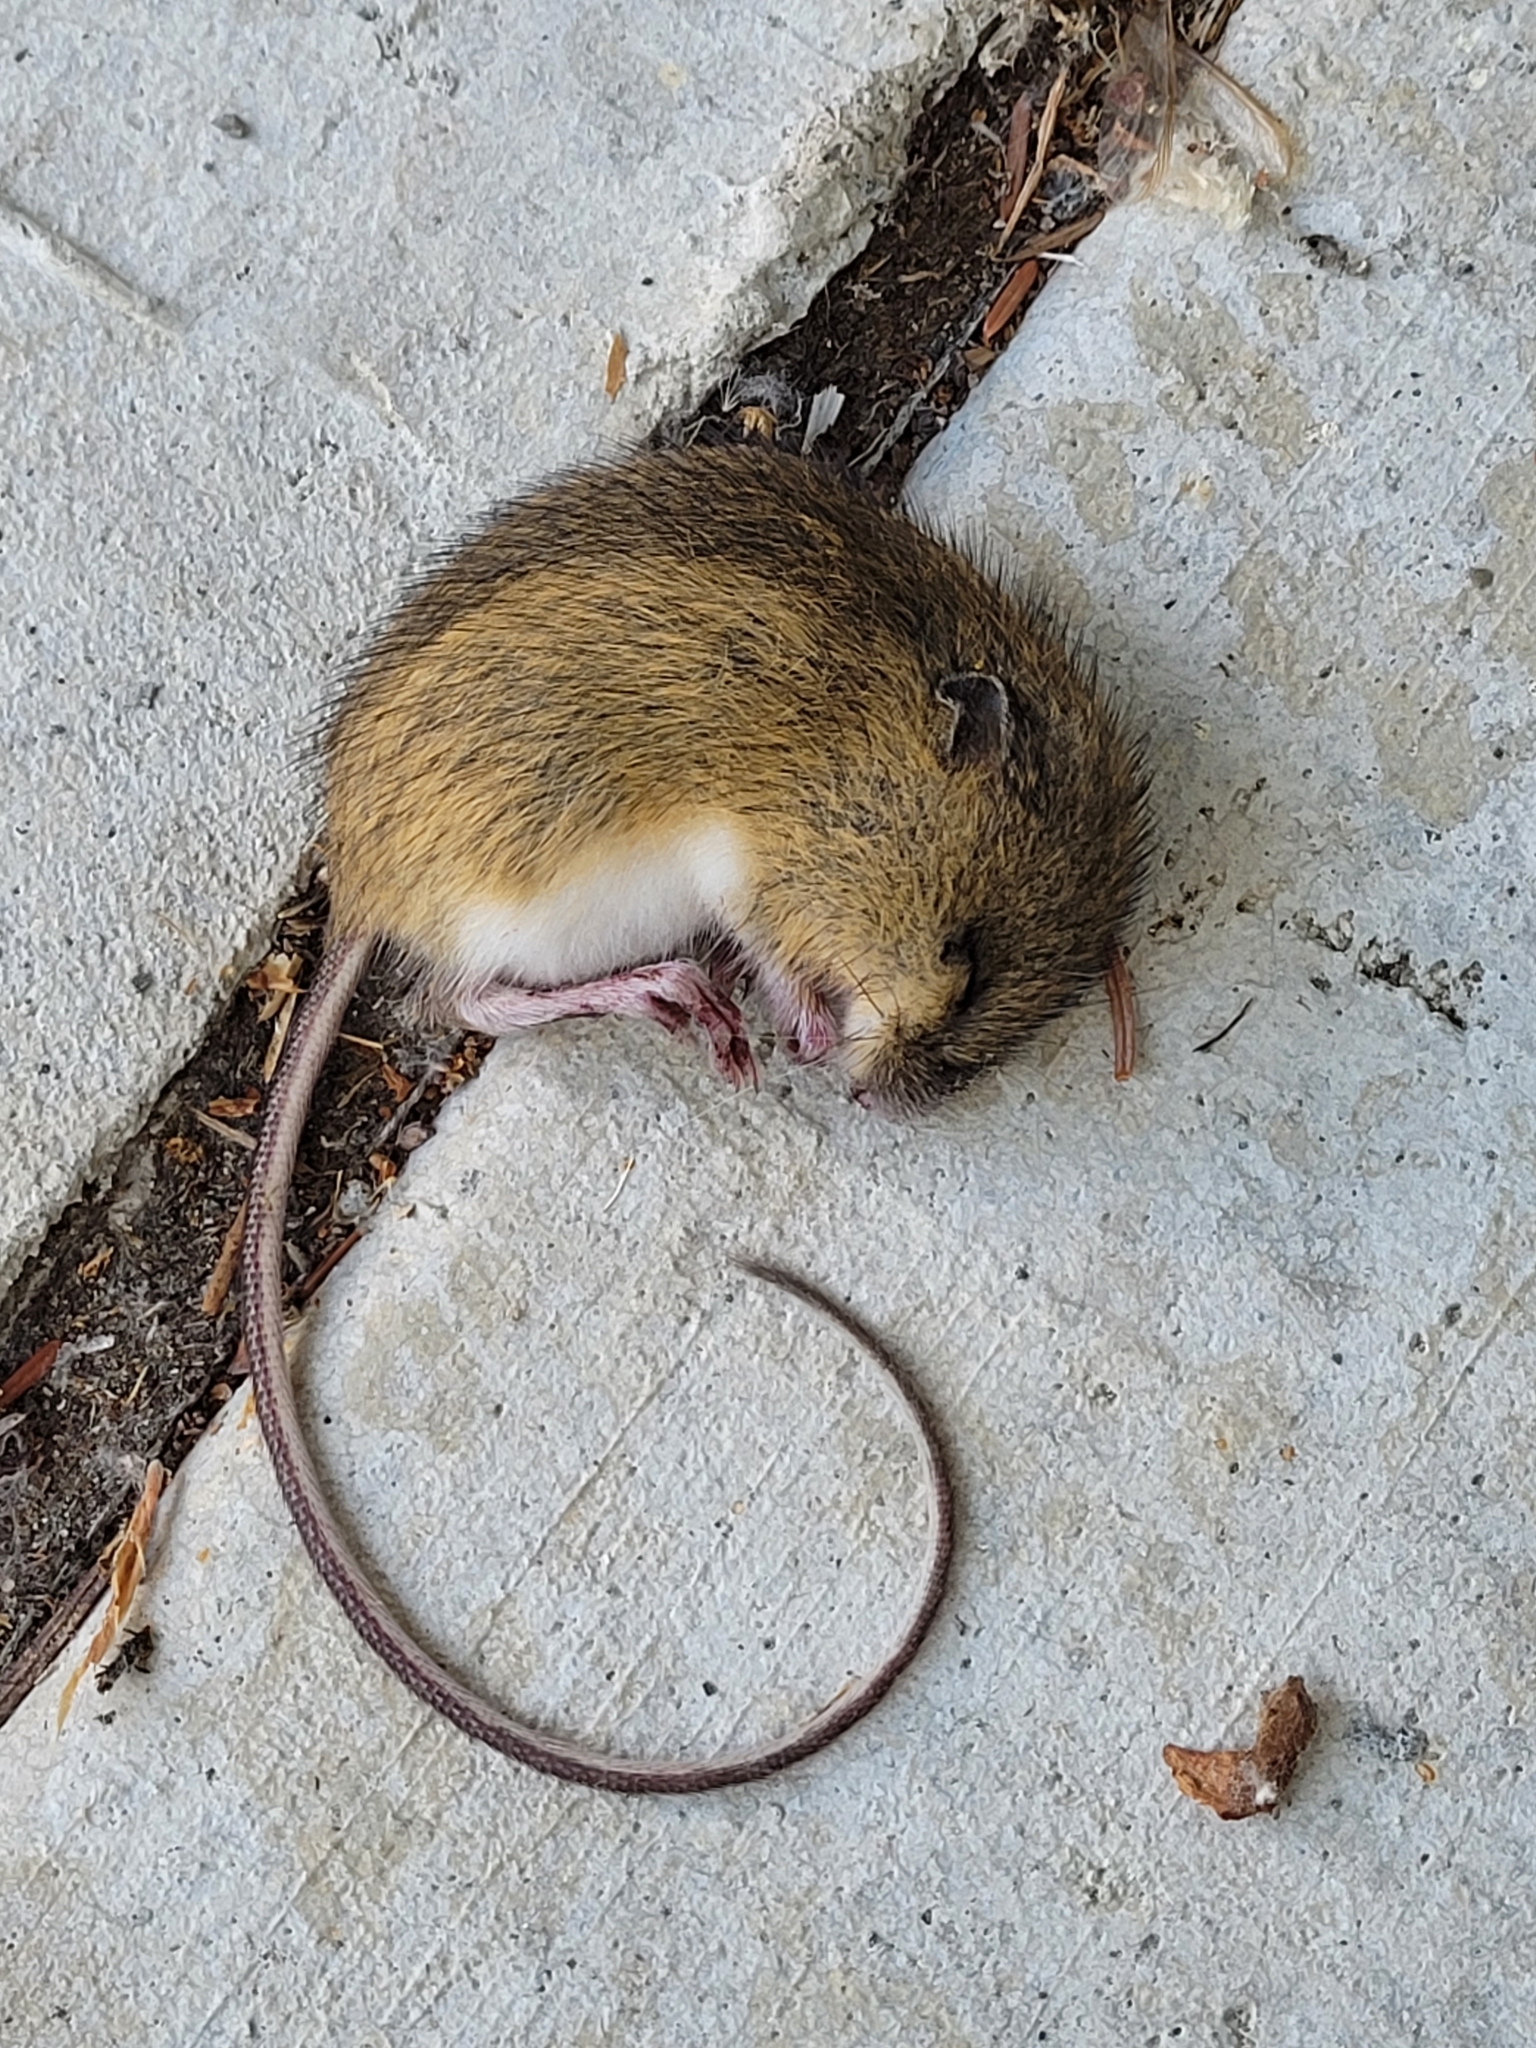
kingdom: Animalia
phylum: Chordata
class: Mammalia
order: Rodentia
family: Dipodidae
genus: Zapus
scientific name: Zapus trinotatus
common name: Pacific jumping mouse
